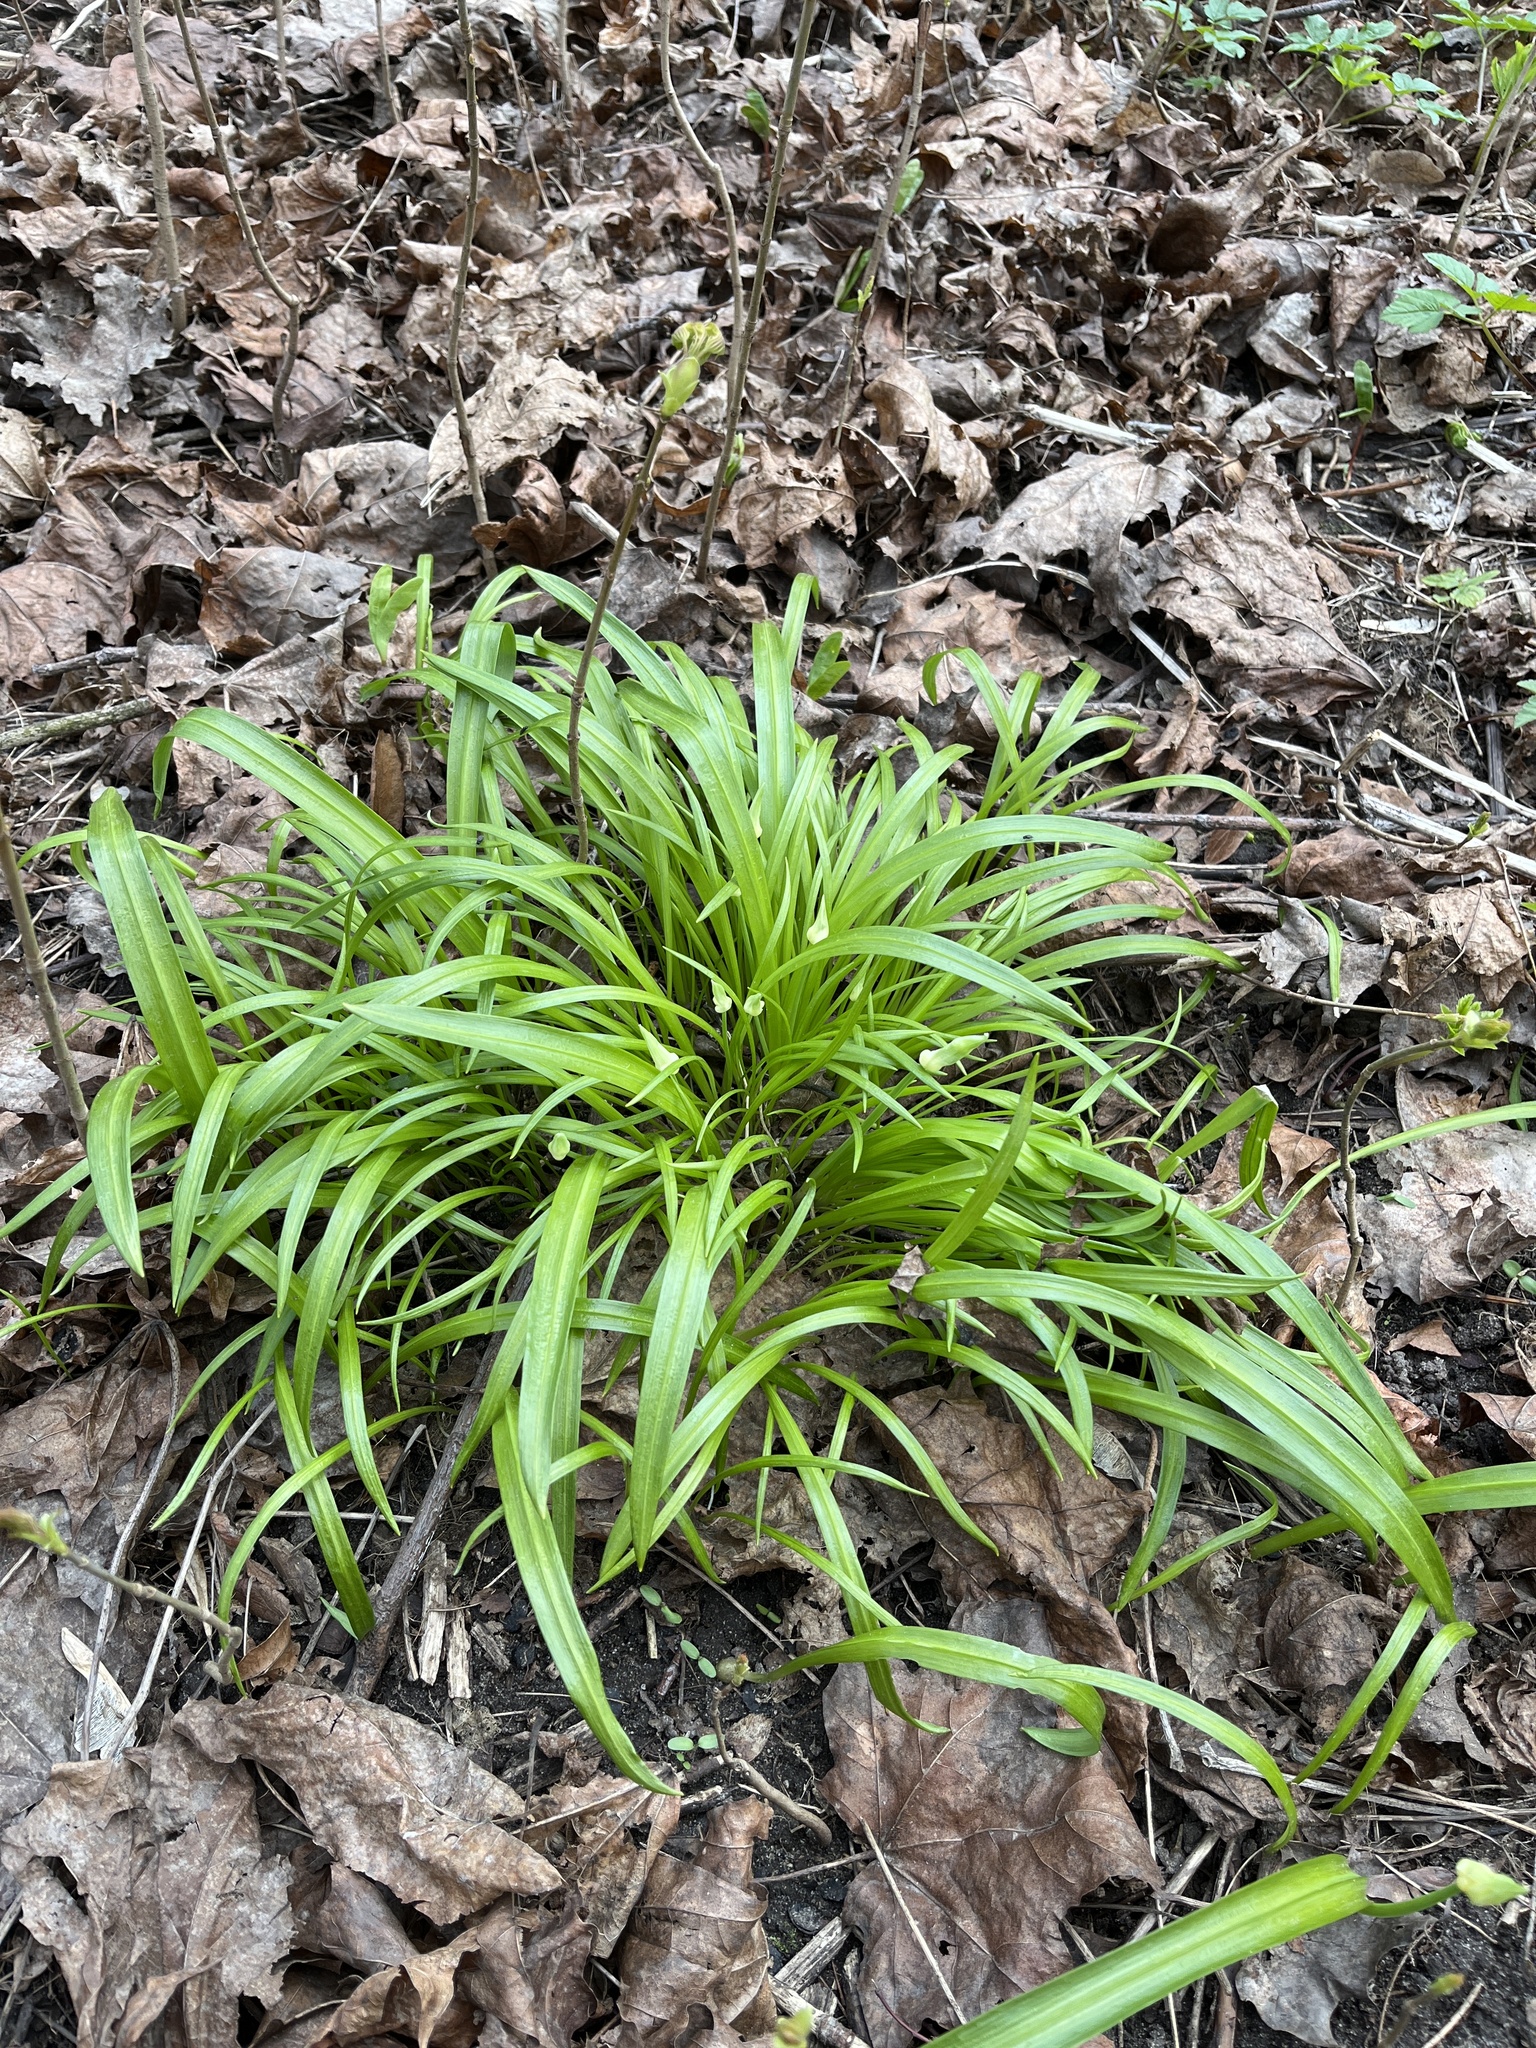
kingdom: Plantae
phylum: Tracheophyta
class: Liliopsida
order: Asparagales
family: Amaryllidaceae
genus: Allium
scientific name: Allium paradoxum
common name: Few-flowered garlic
